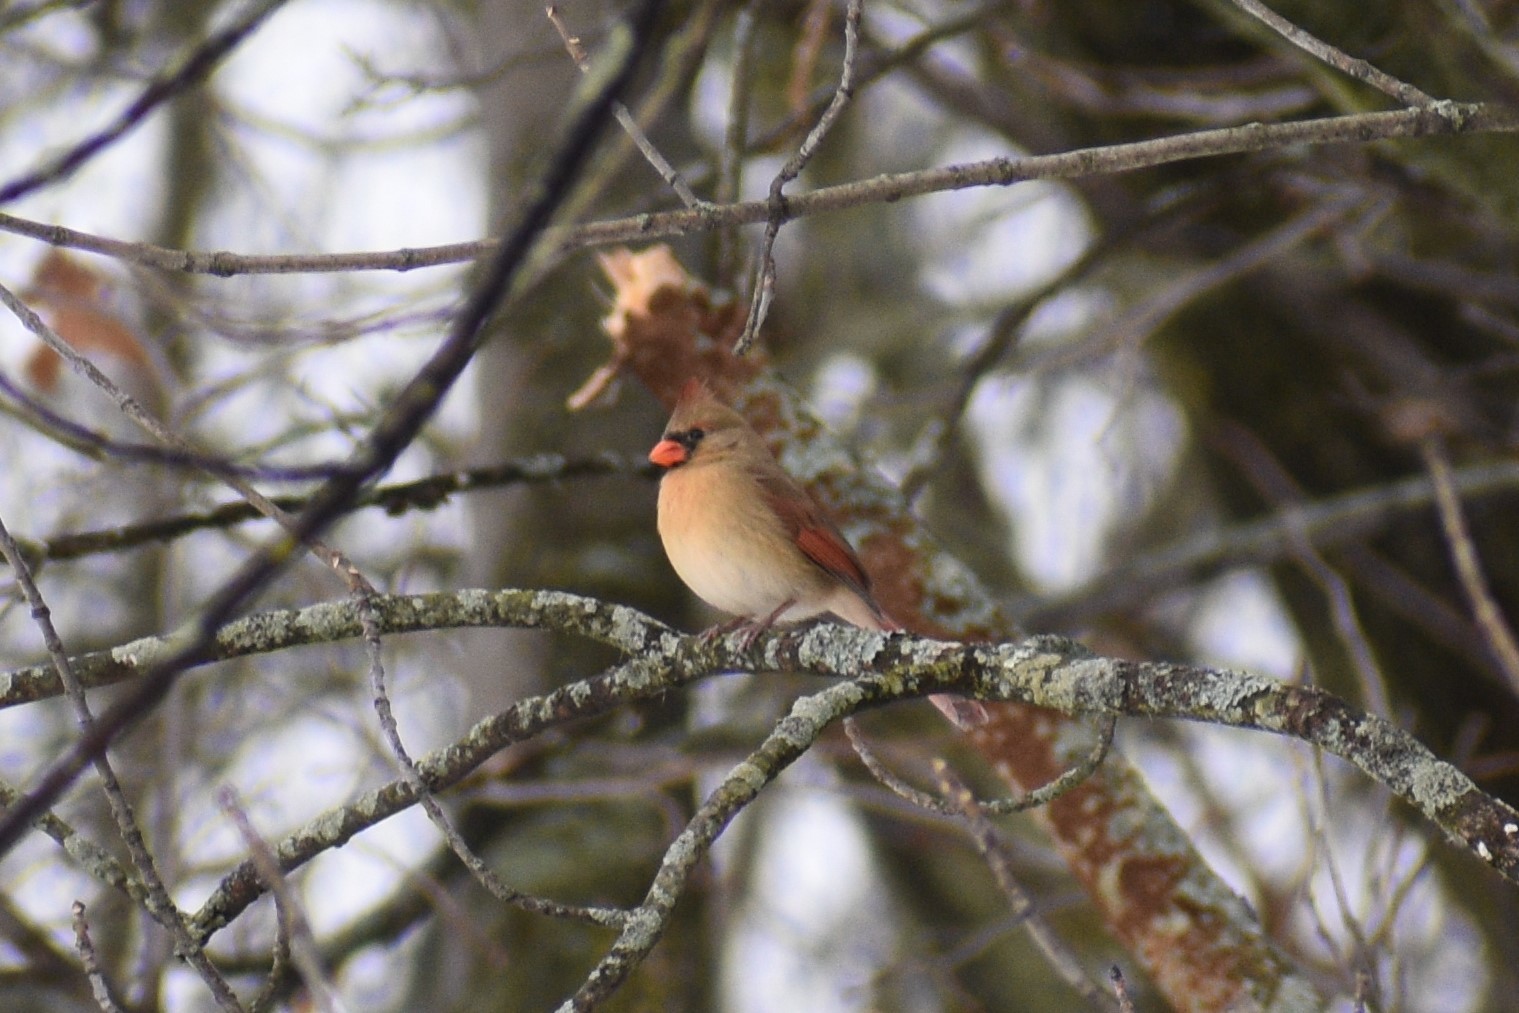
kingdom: Animalia
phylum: Chordata
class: Aves
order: Passeriformes
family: Cardinalidae
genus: Cardinalis
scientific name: Cardinalis cardinalis
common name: Northern cardinal
